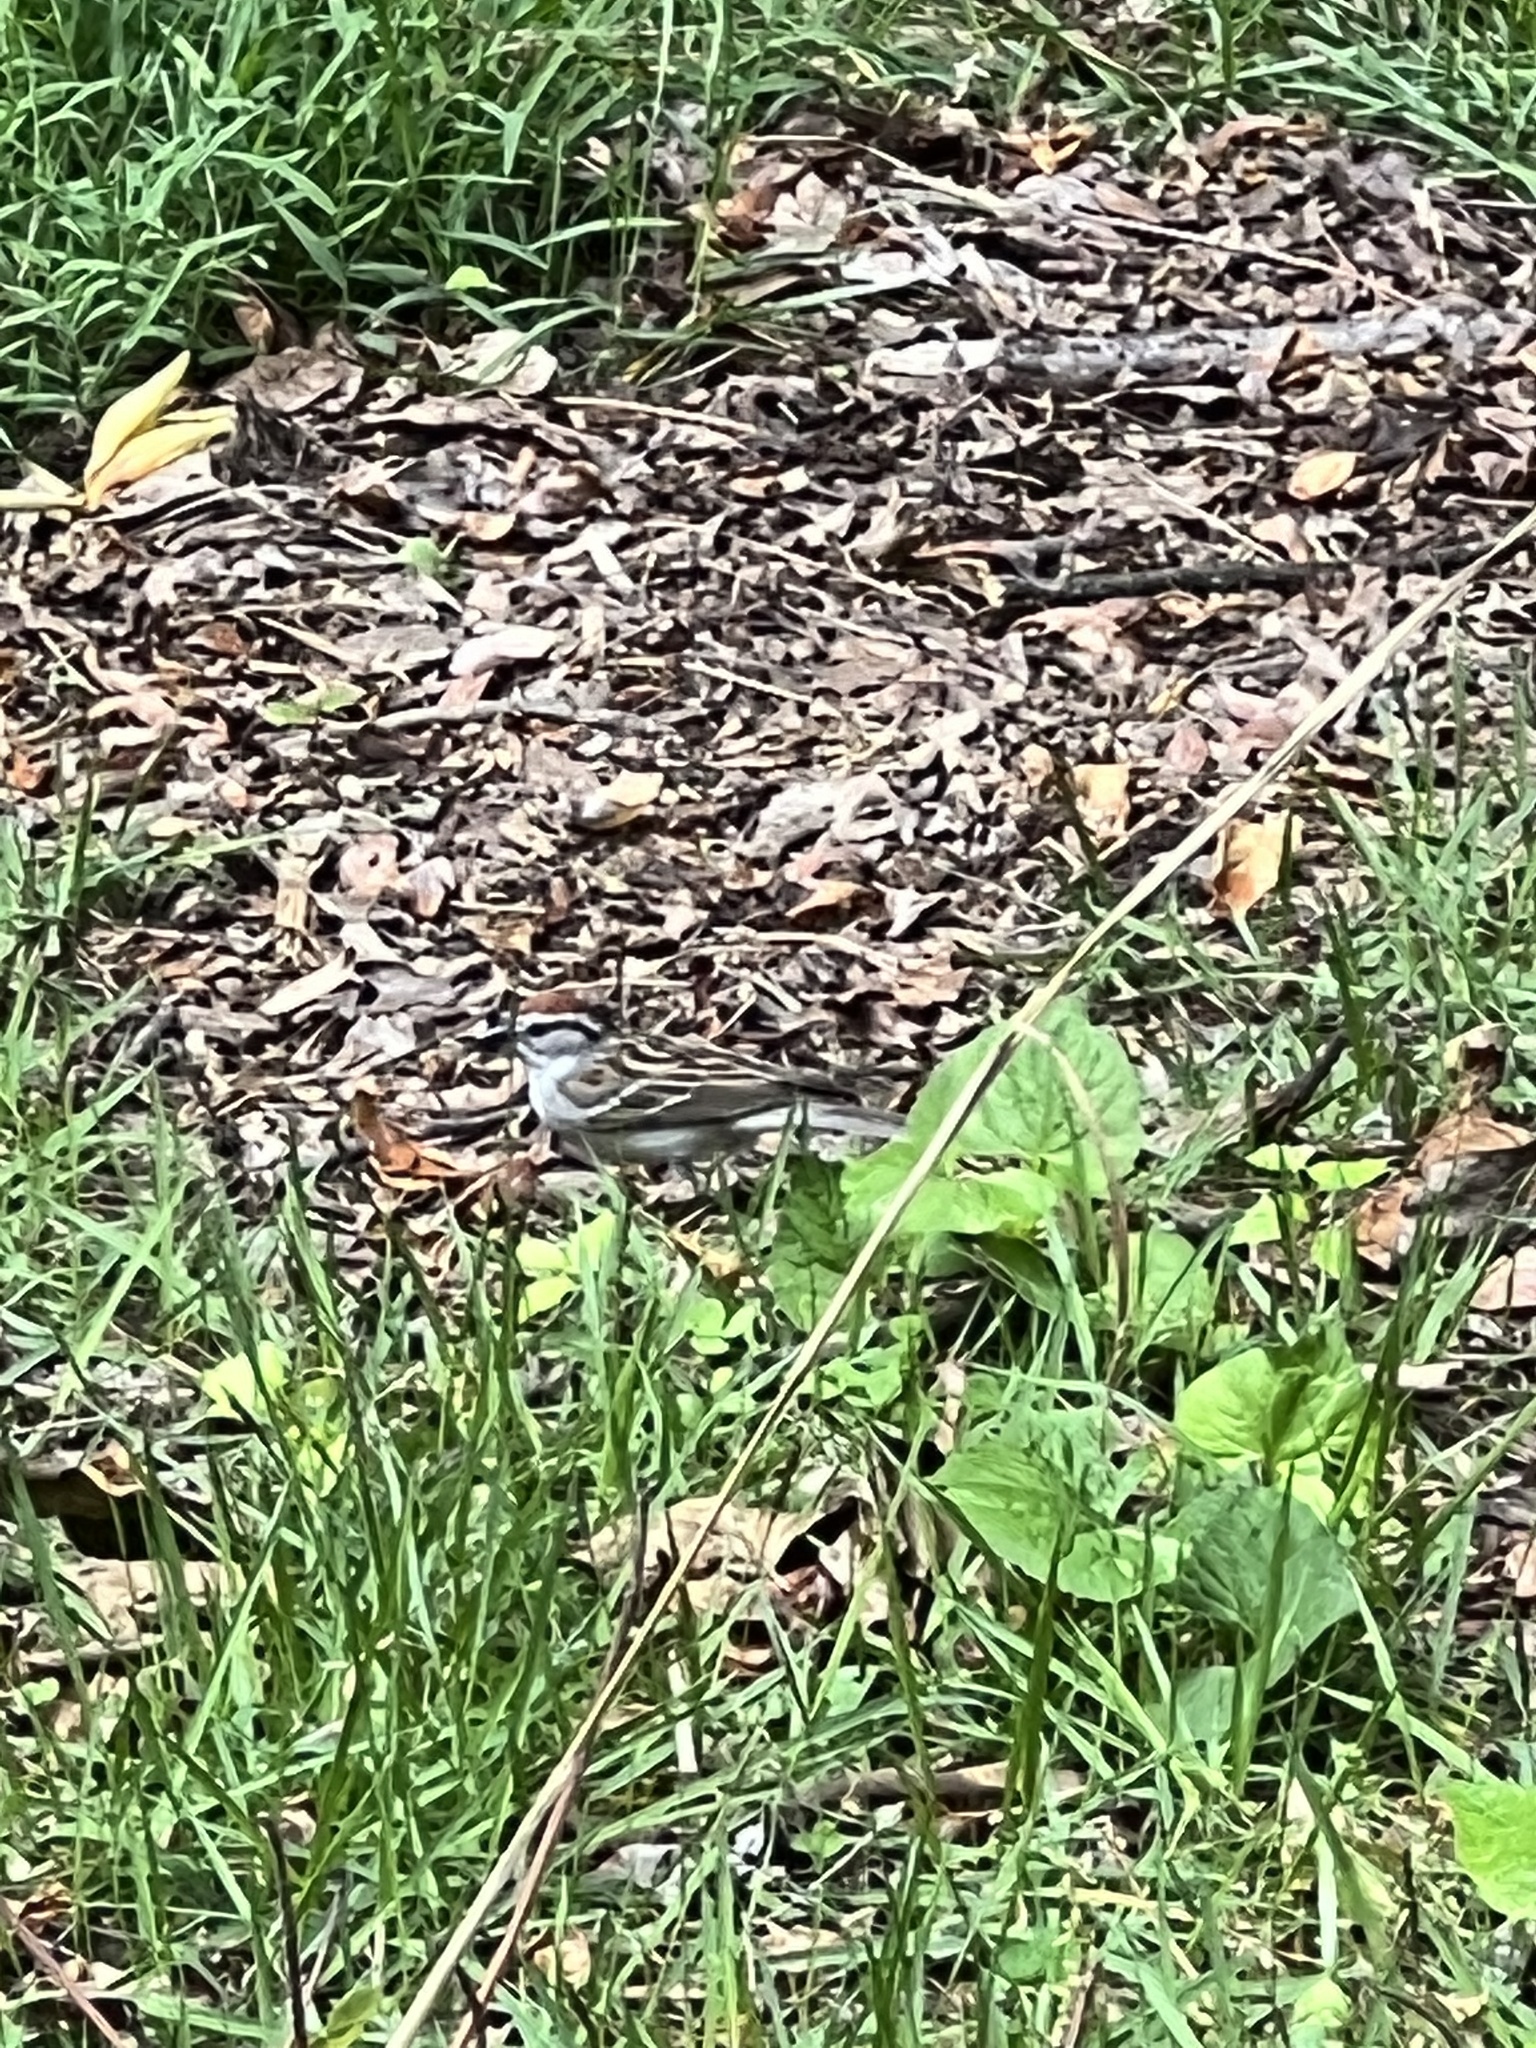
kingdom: Animalia
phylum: Chordata
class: Aves
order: Passeriformes
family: Passerellidae
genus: Spizella
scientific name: Spizella passerina
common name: Chipping sparrow
